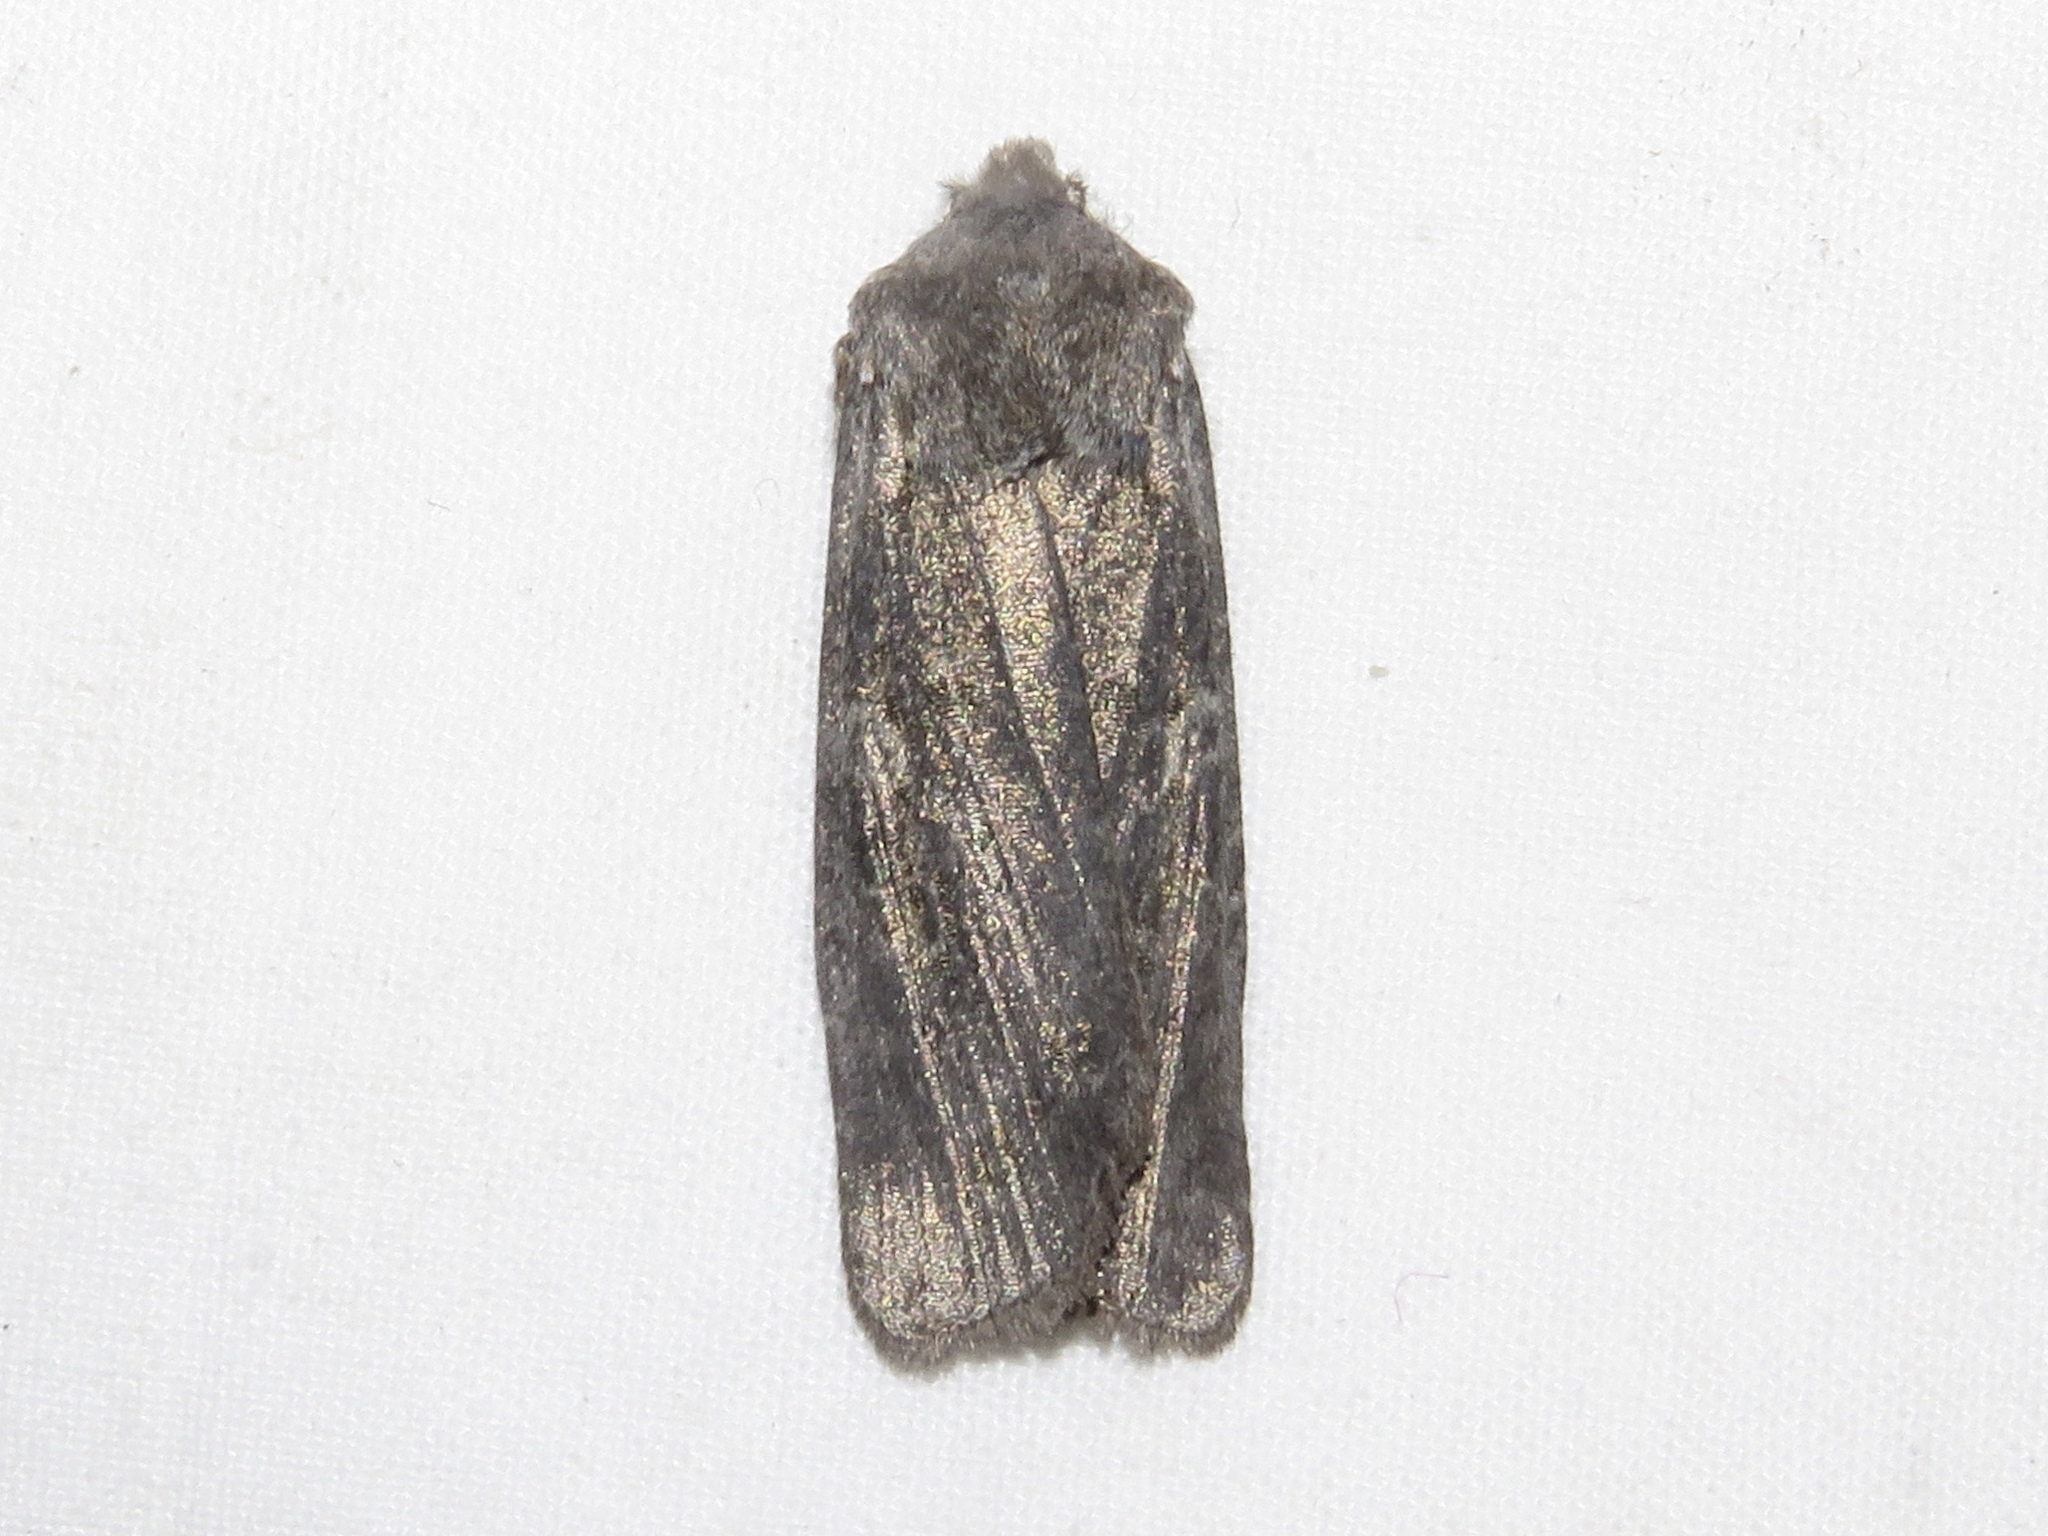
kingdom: Animalia
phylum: Arthropoda
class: Insecta
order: Lepidoptera
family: Noctuidae
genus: Lithophane
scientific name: Lithophane grotei
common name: Grote's pinion moth
